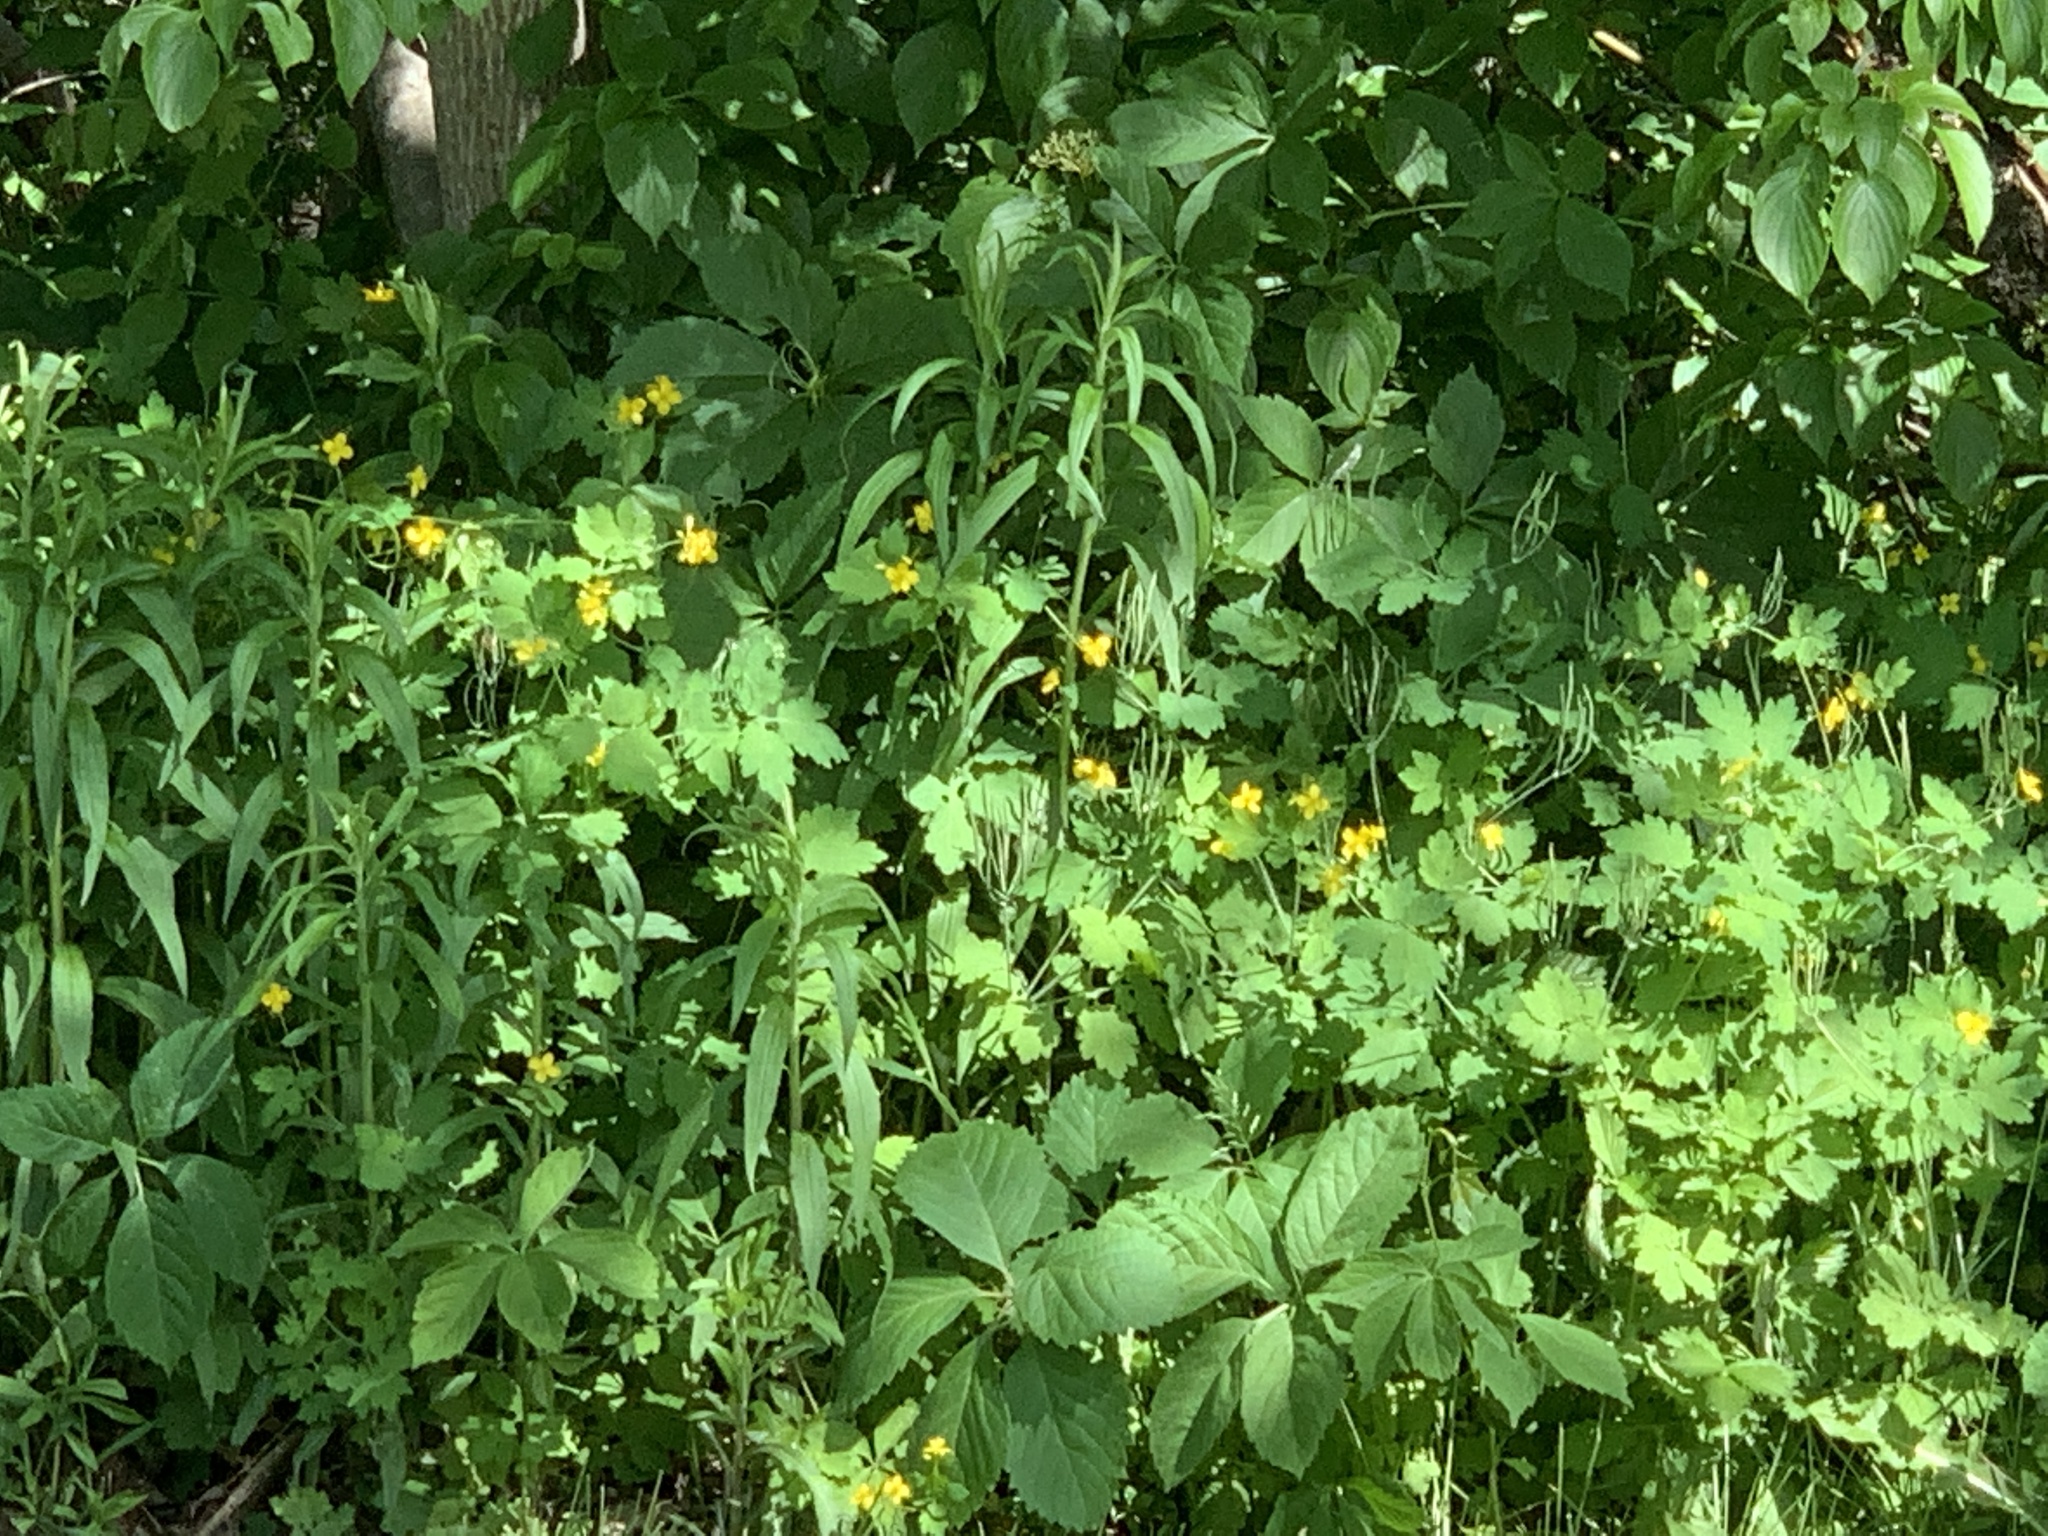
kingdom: Plantae
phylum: Tracheophyta
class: Magnoliopsida
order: Ranunculales
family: Papaveraceae
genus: Chelidonium
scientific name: Chelidonium majus
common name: Greater celandine
